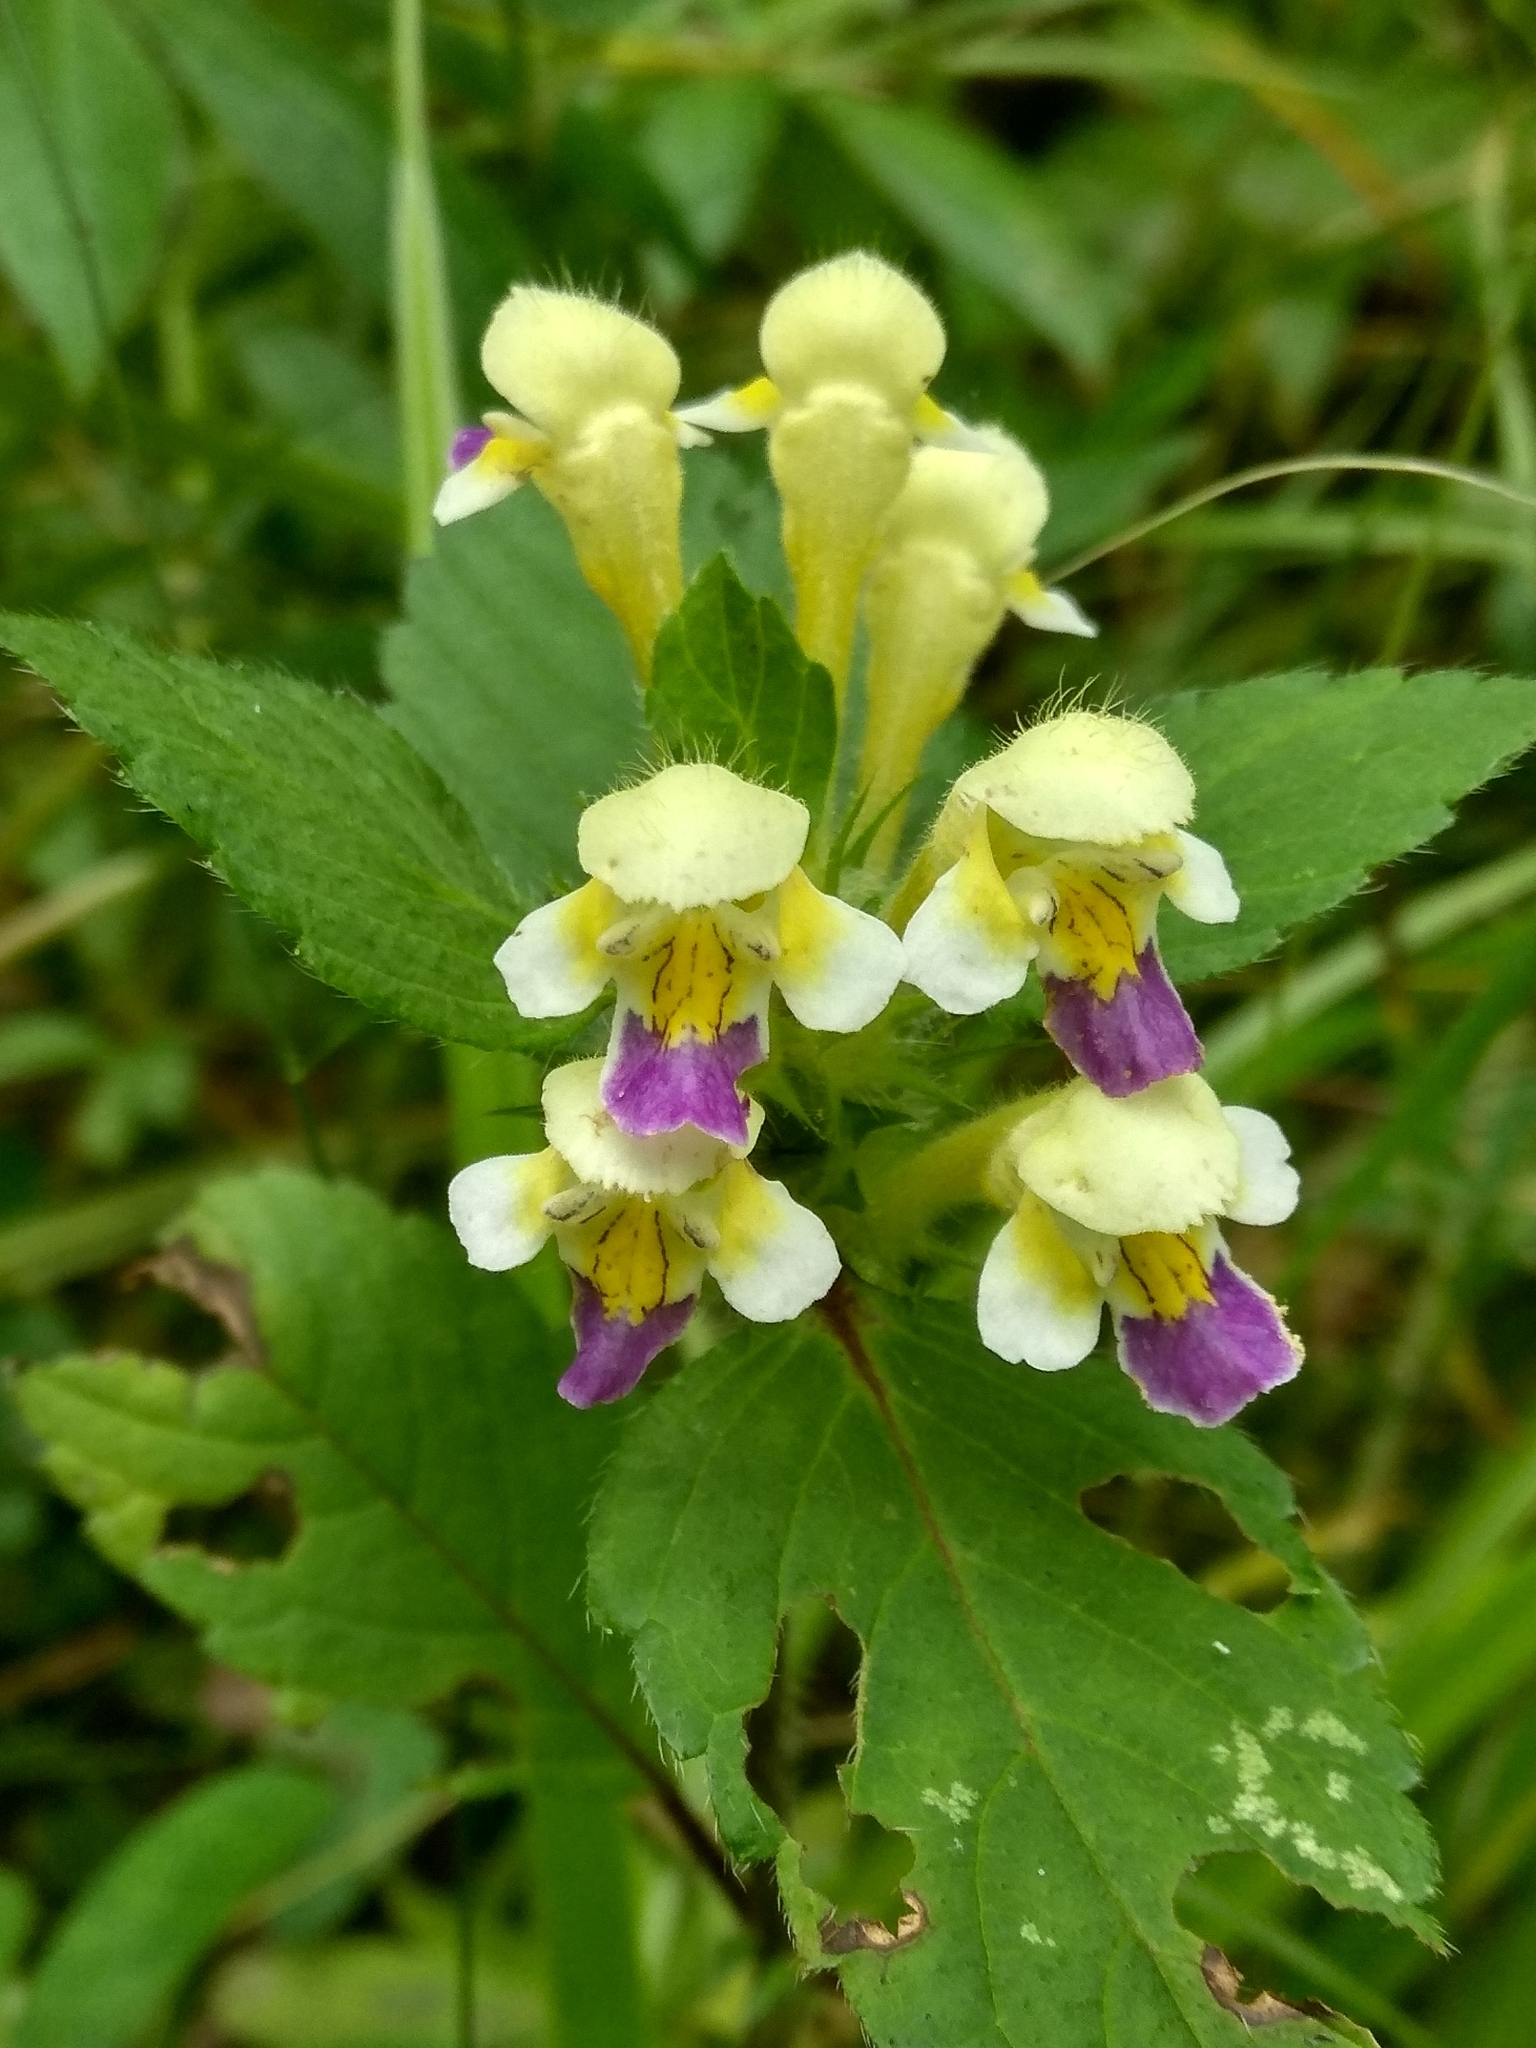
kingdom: Plantae
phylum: Tracheophyta
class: Magnoliopsida
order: Lamiales
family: Lamiaceae
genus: Galeopsis
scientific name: Galeopsis speciosa
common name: Large-flowered hemp-nettle
